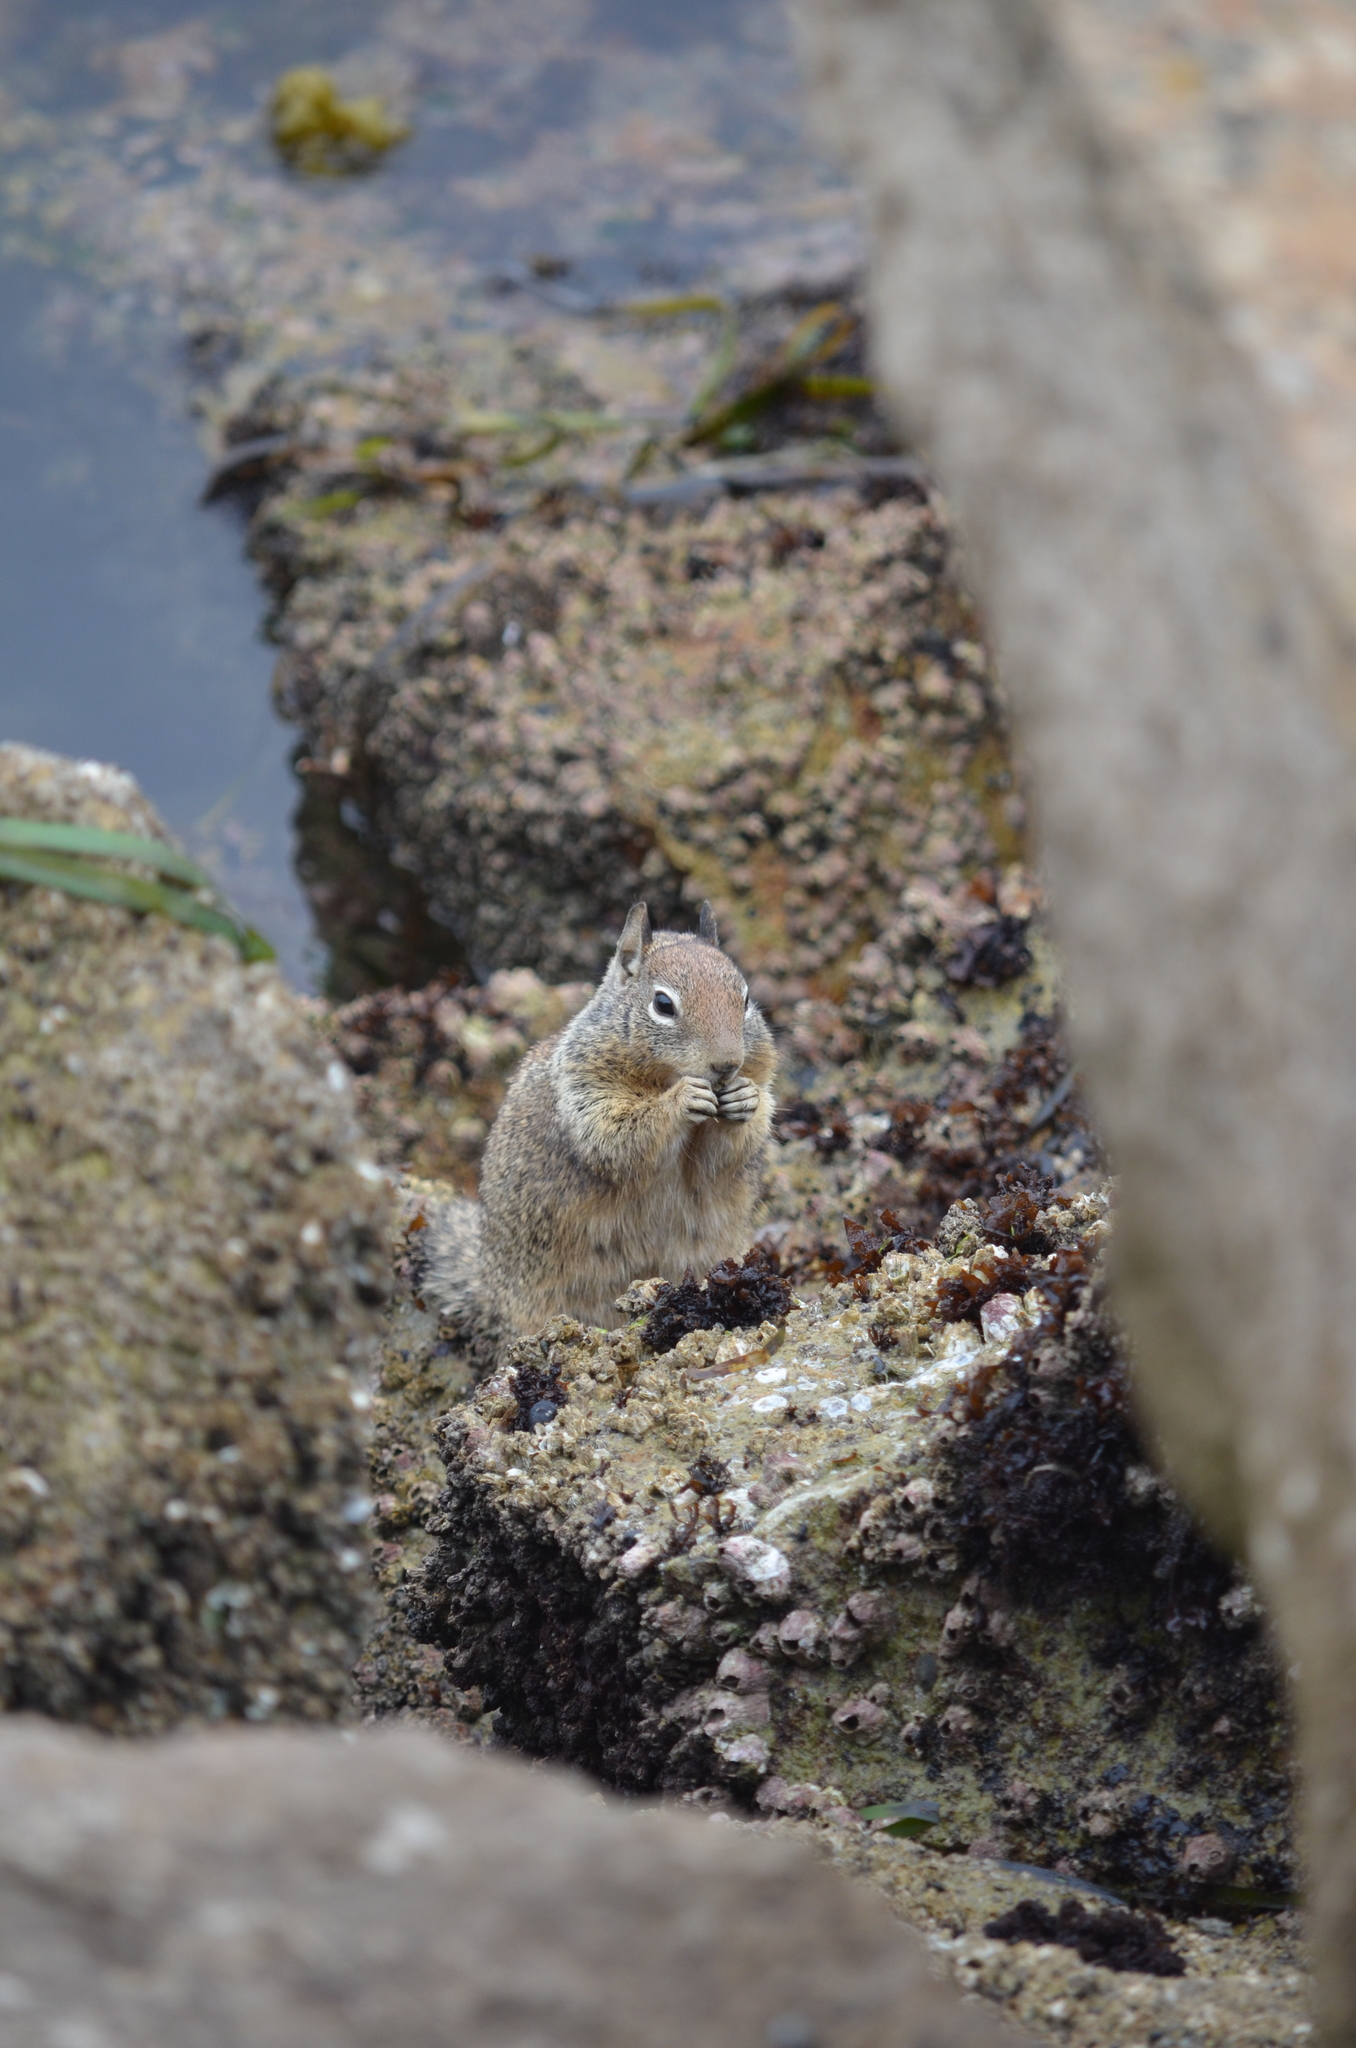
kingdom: Animalia
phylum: Chordata
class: Mammalia
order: Rodentia
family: Sciuridae
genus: Otospermophilus
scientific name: Otospermophilus beecheyi
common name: California ground squirrel
